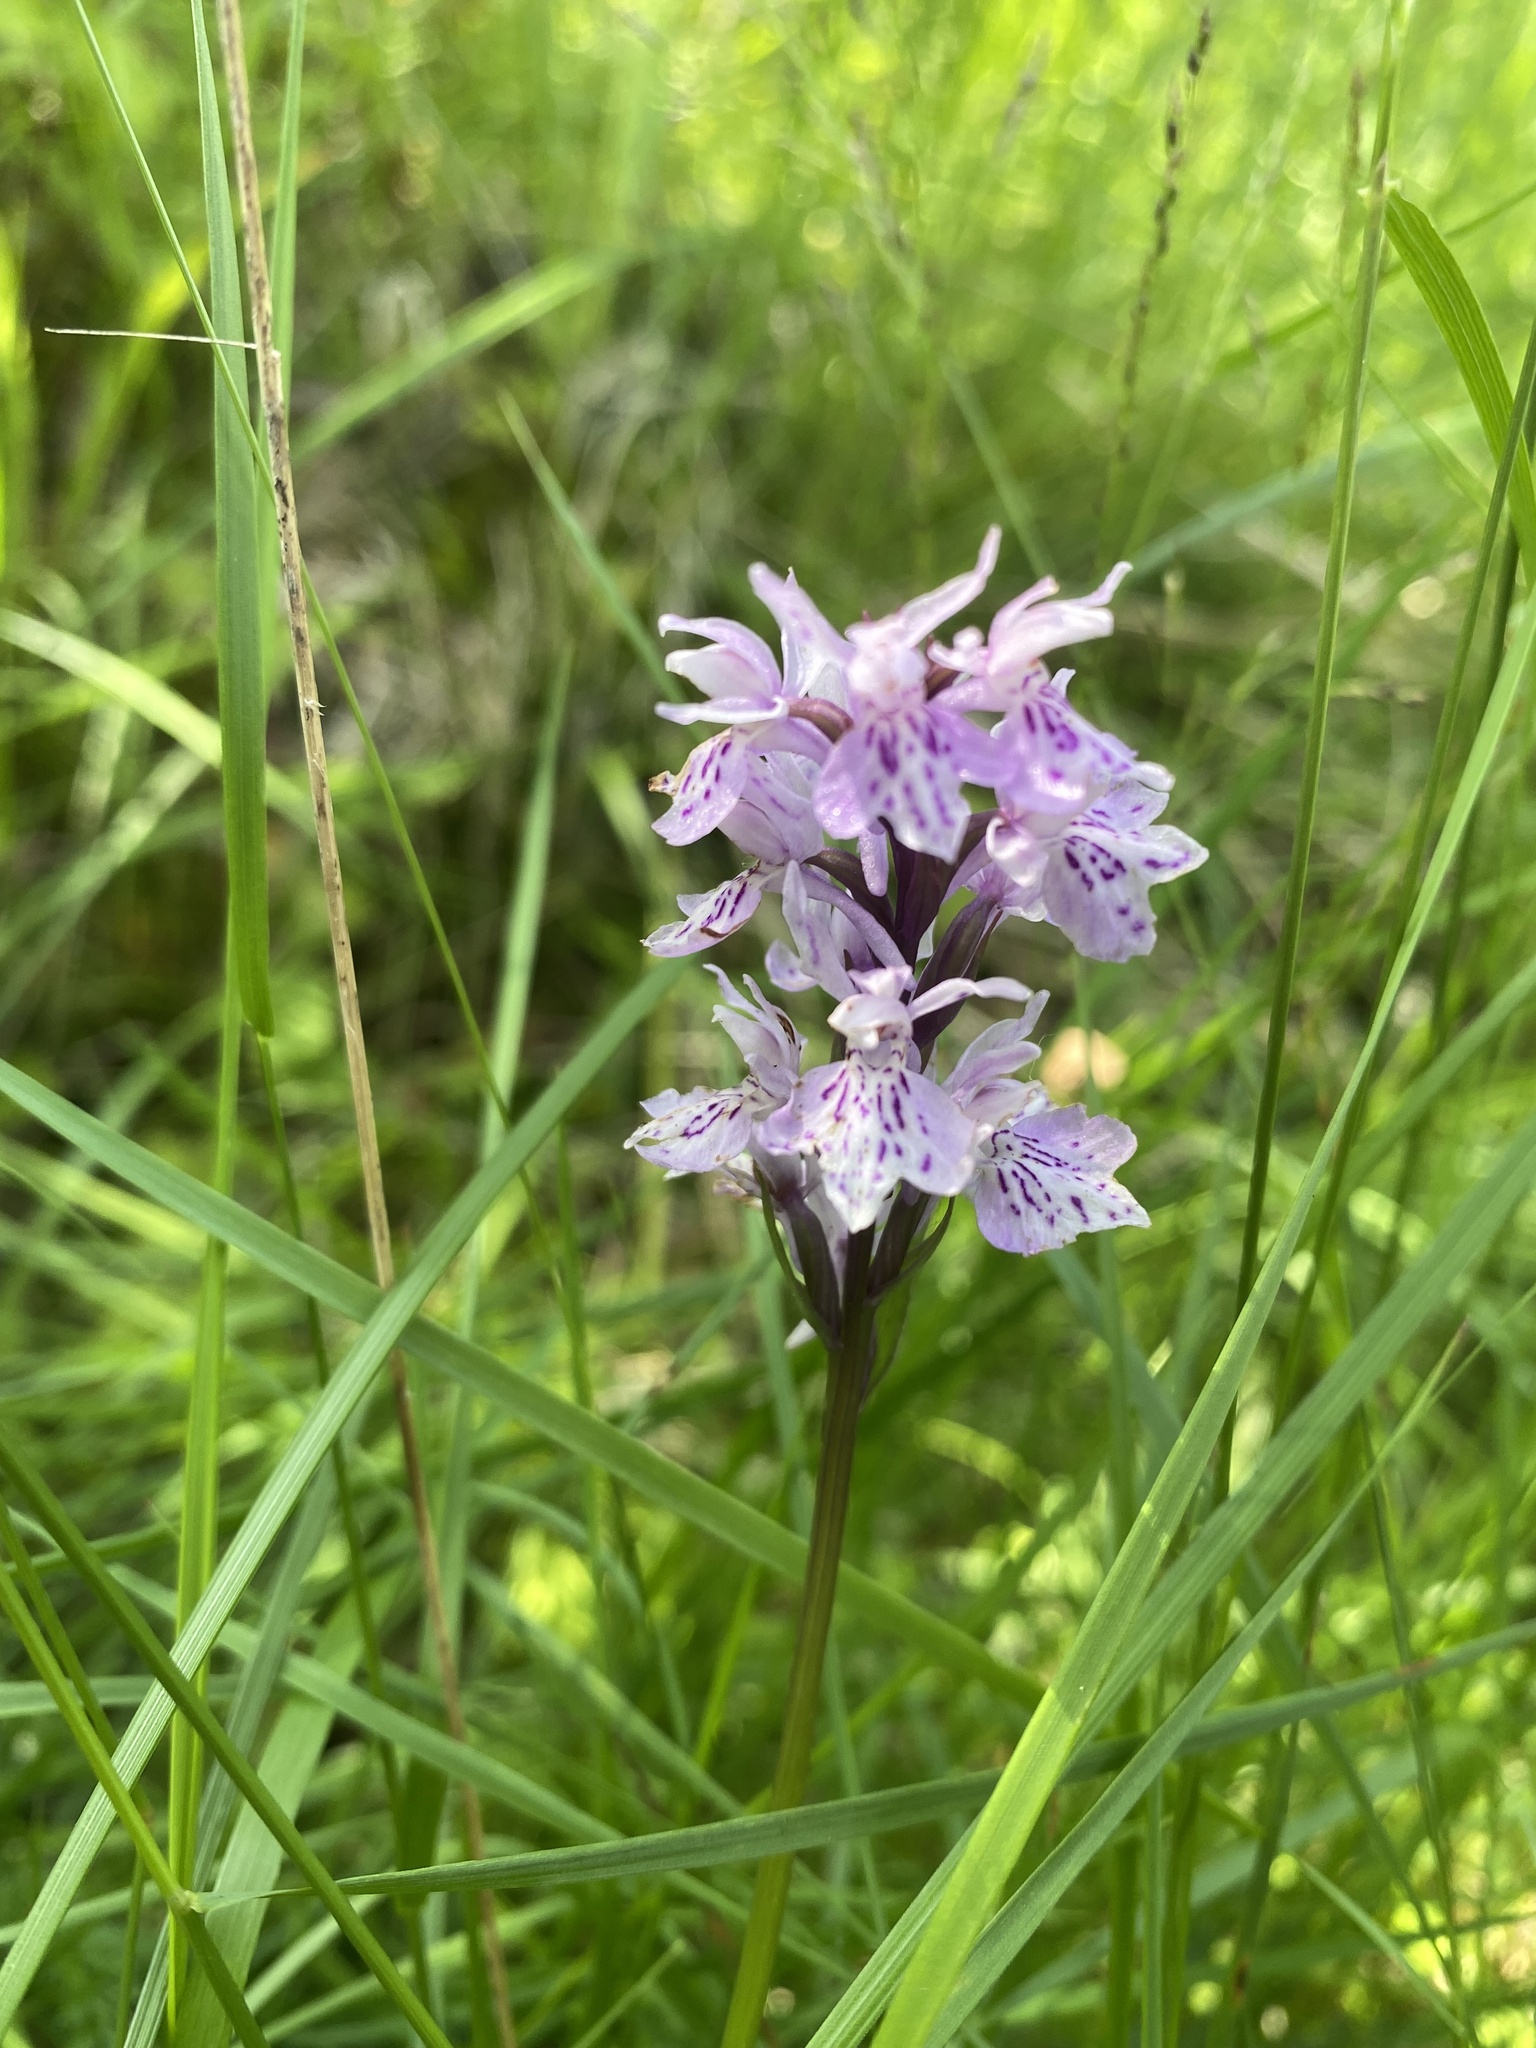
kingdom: Plantae
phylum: Tracheophyta
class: Liliopsida
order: Asparagales
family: Orchidaceae
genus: Dactylorhiza
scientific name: Dactylorhiza maculata
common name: Heath spotted-orchid
